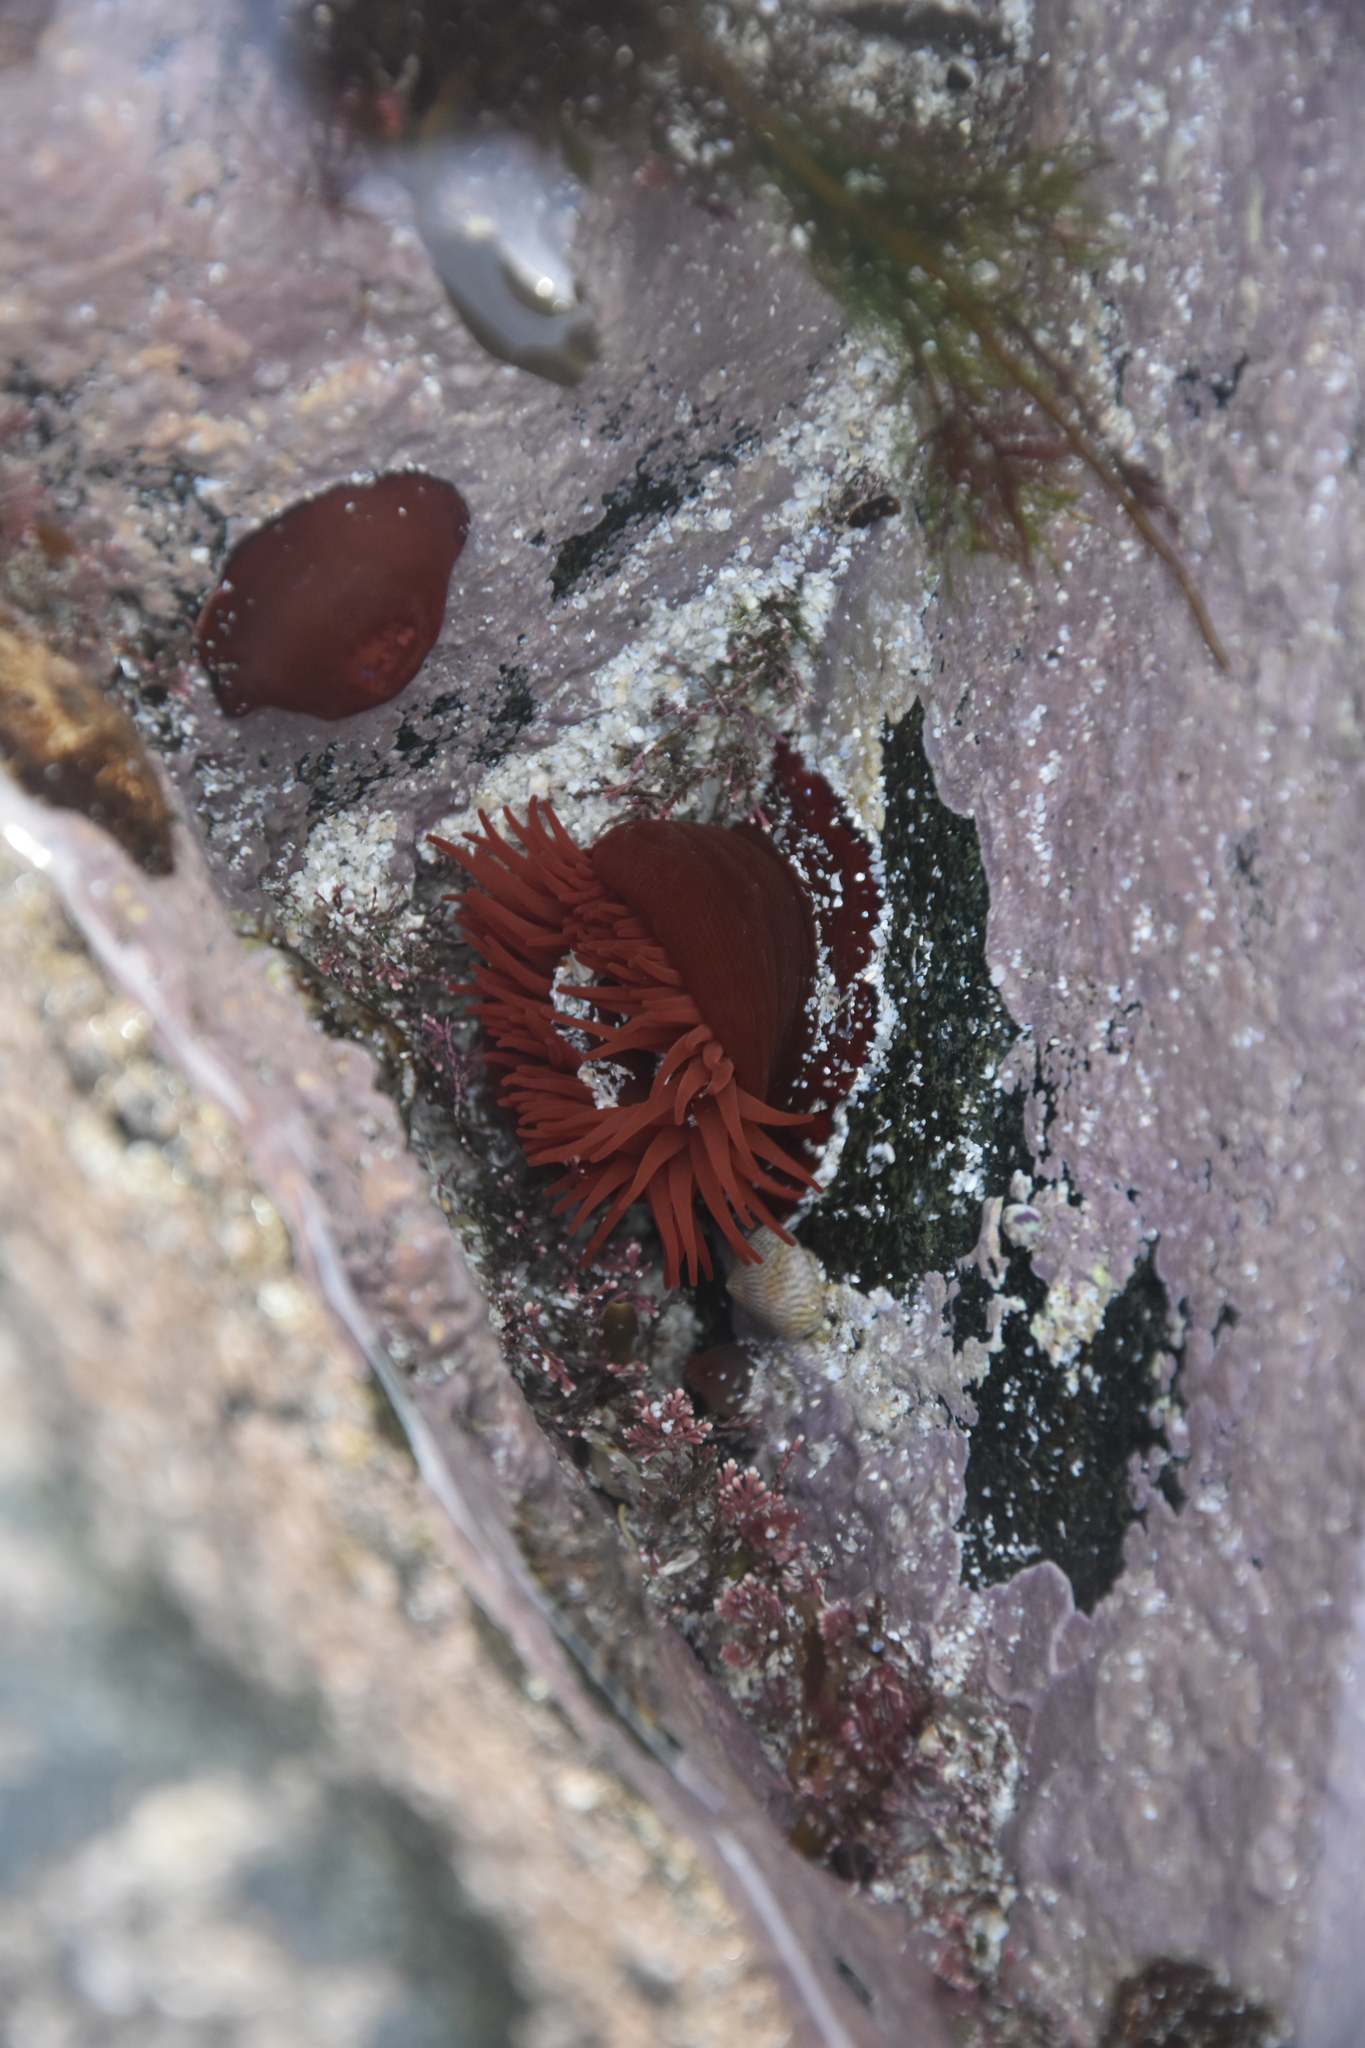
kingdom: Animalia
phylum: Cnidaria
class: Anthozoa
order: Actiniaria
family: Actiniidae
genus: Actinia
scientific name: Actinia equina
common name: Beadlet anemone
